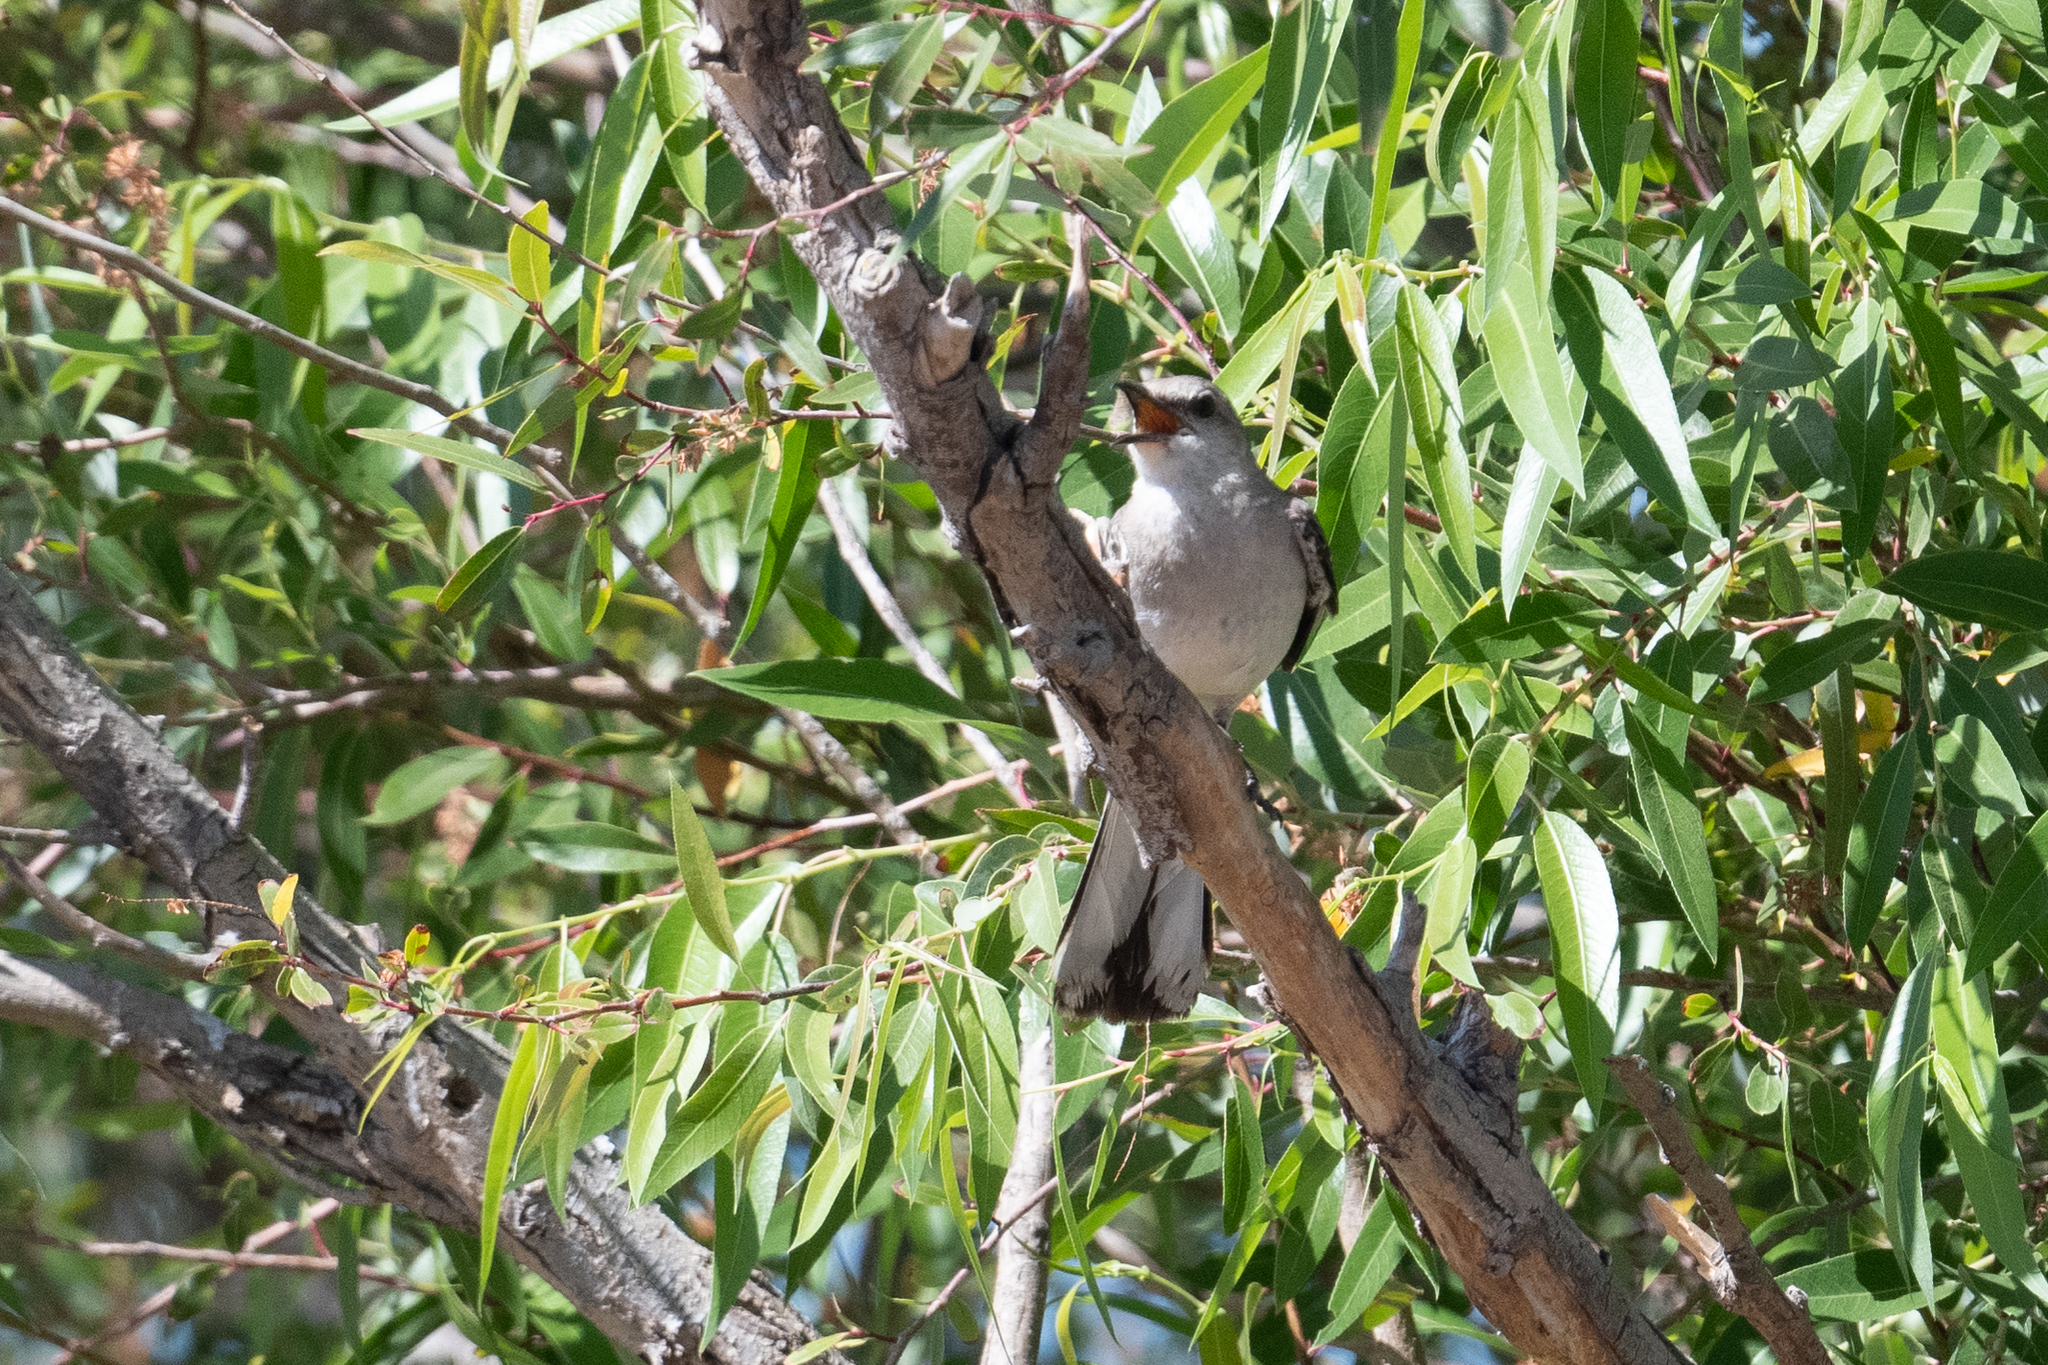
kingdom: Animalia
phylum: Chordata
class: Aves
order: Passeriformes
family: Mimidae
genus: Mimus
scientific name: Mimus polyglottos
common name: Northern mockingbird
